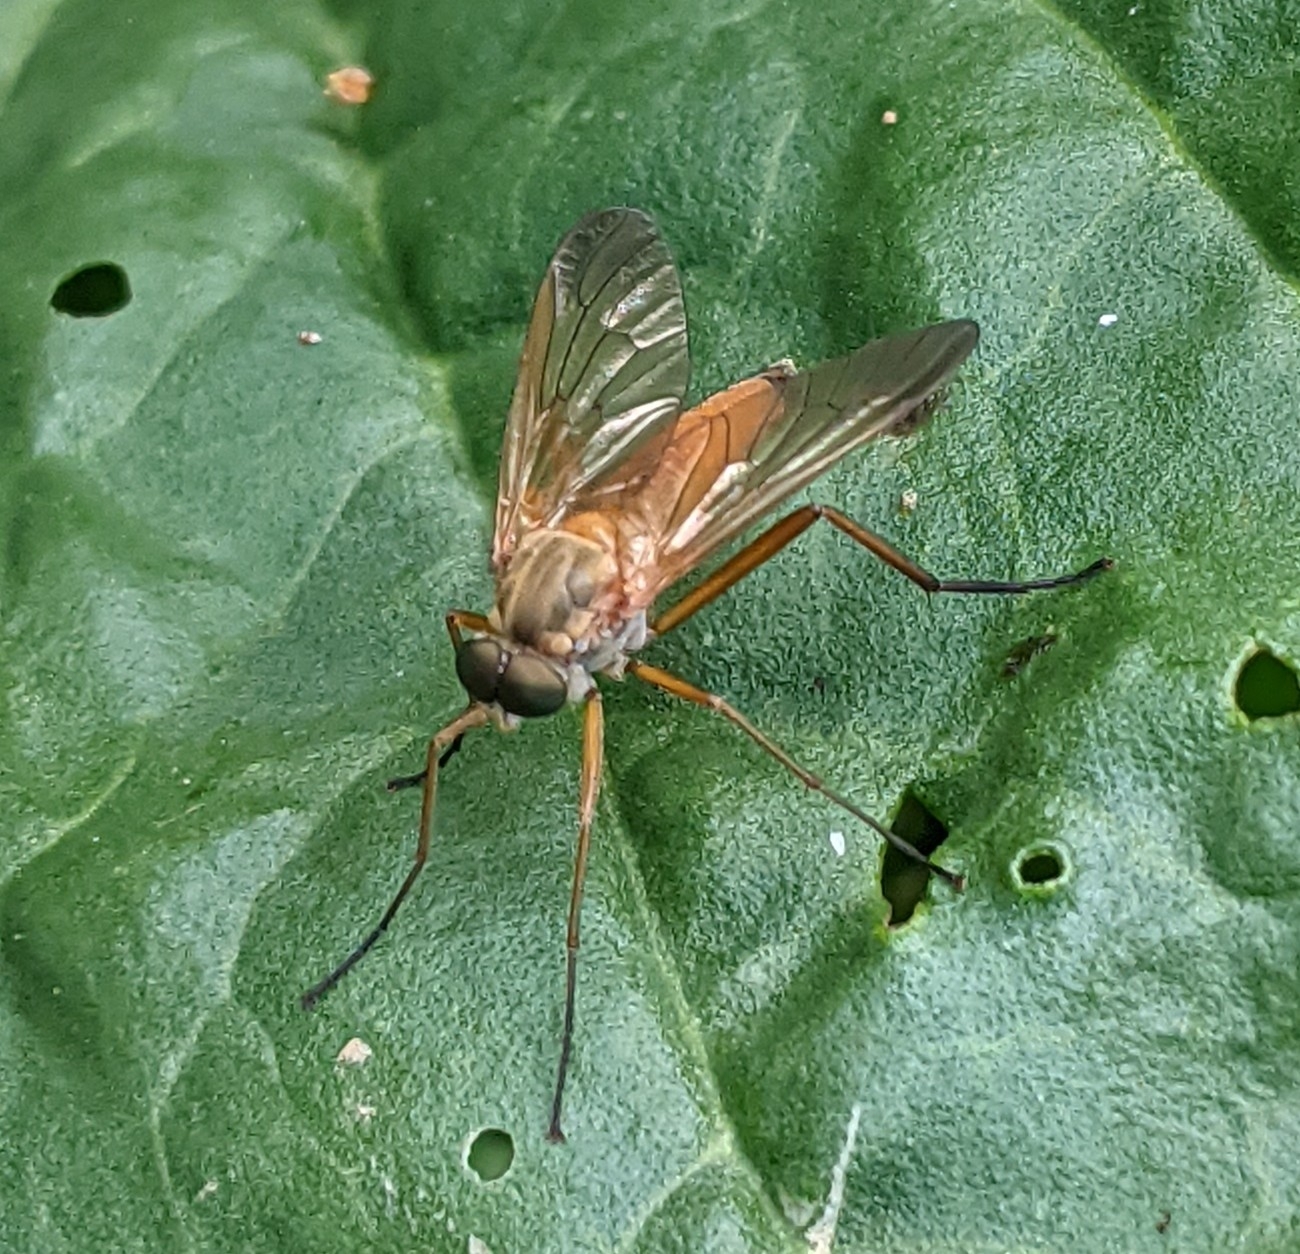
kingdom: Animalia
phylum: Arthropoda
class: Insecta
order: Diptera
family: Rhagionidae
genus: Rhagio
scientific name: Rhagio tringaria
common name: Marsh snipefly
